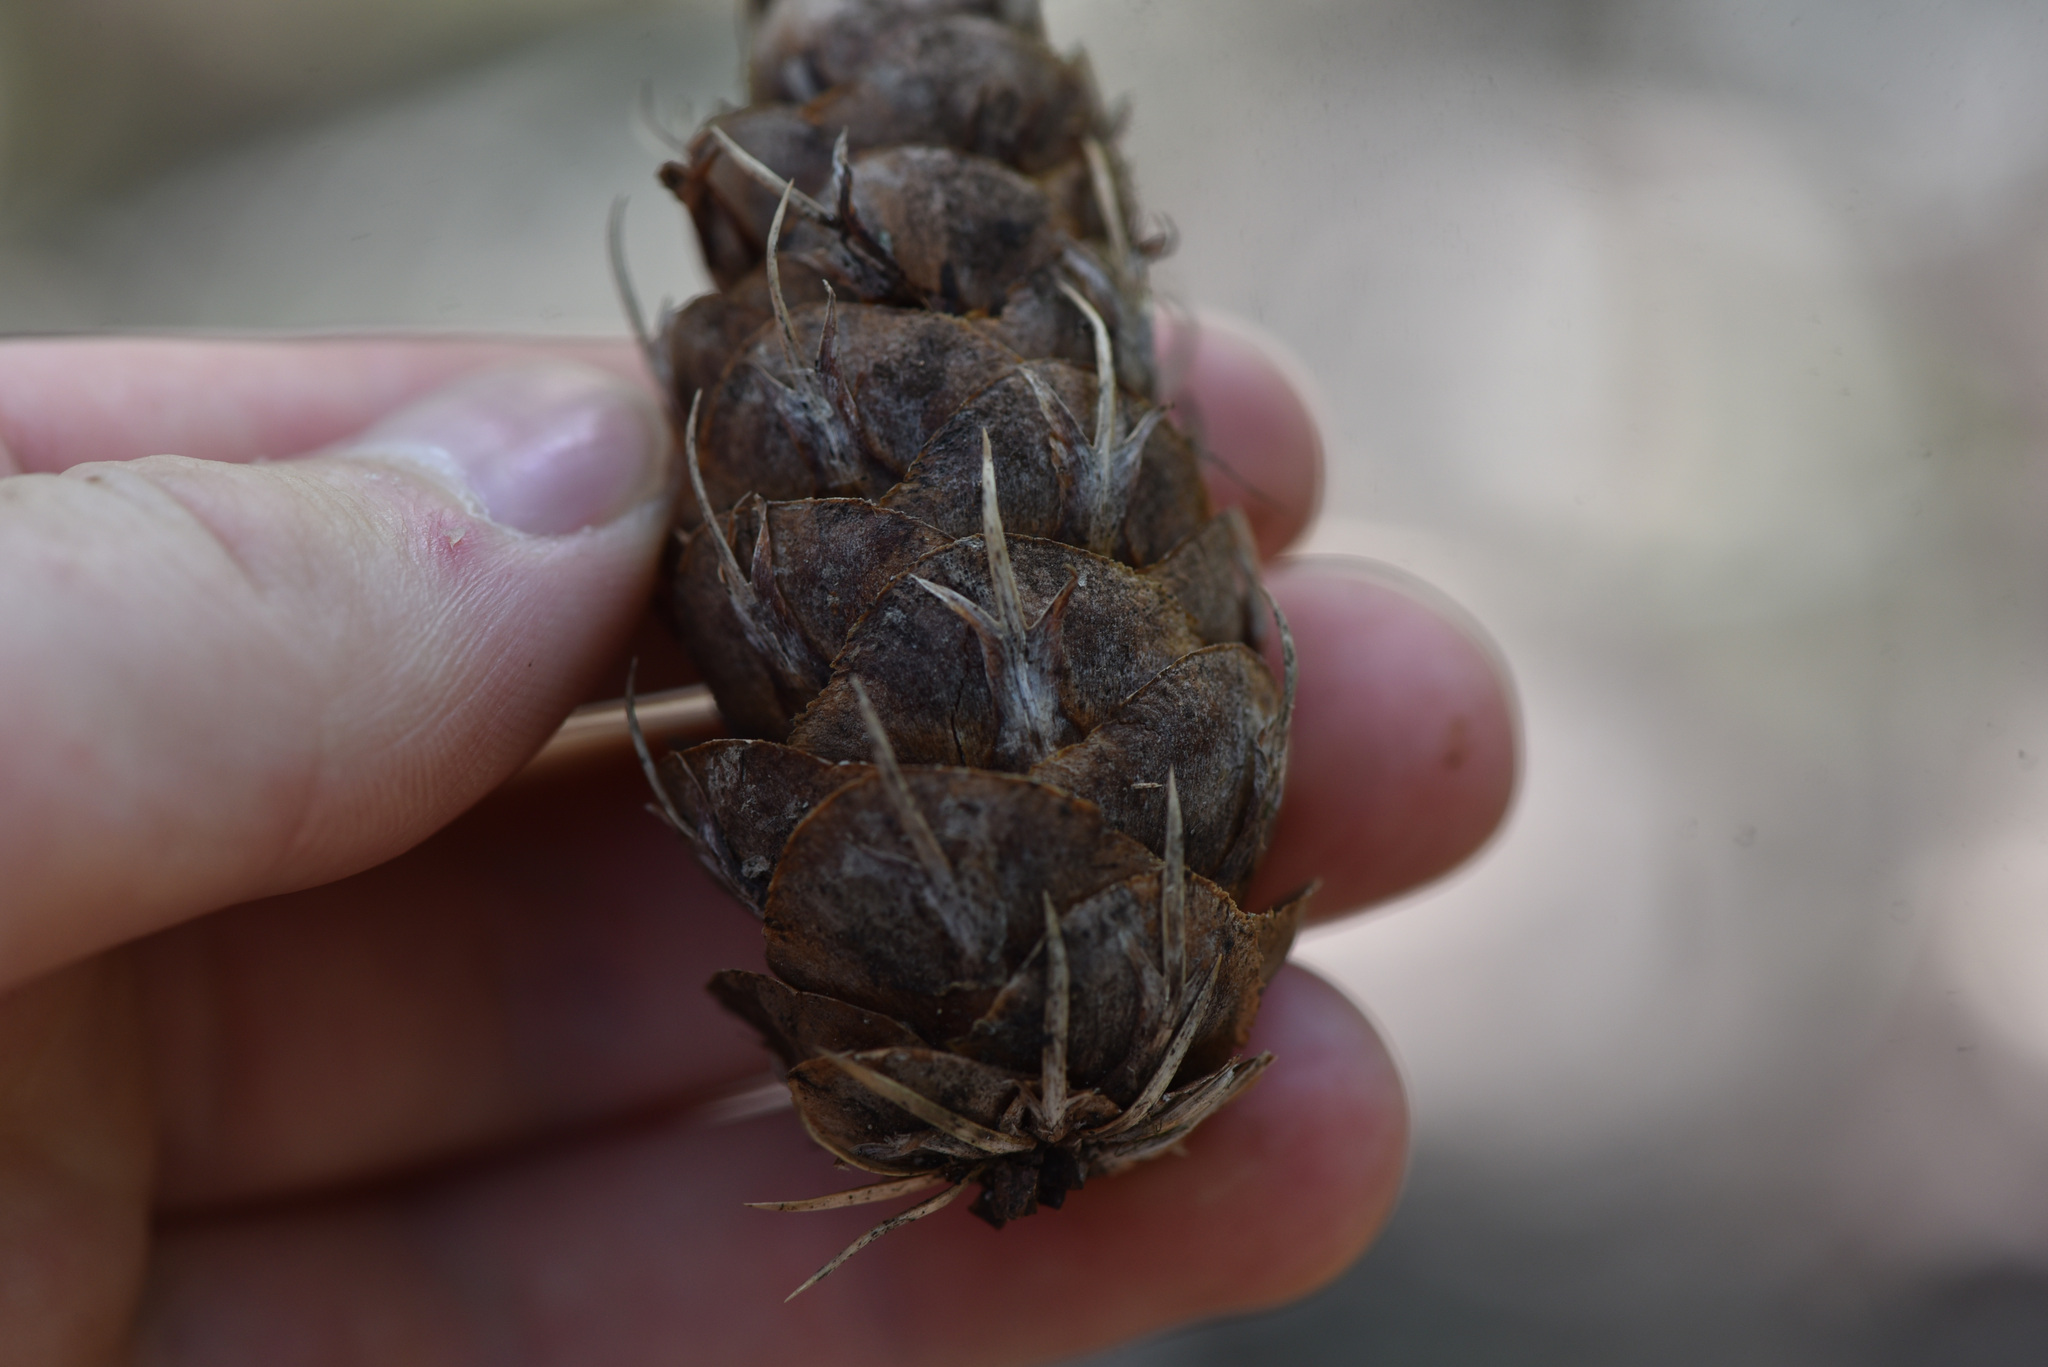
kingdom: Plantae
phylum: Tracheophyta
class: Pinopsida
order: Pinales
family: Pinaceae
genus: Pseudotsuga
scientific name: Pseudotsuga menziesii
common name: Douglas fir
